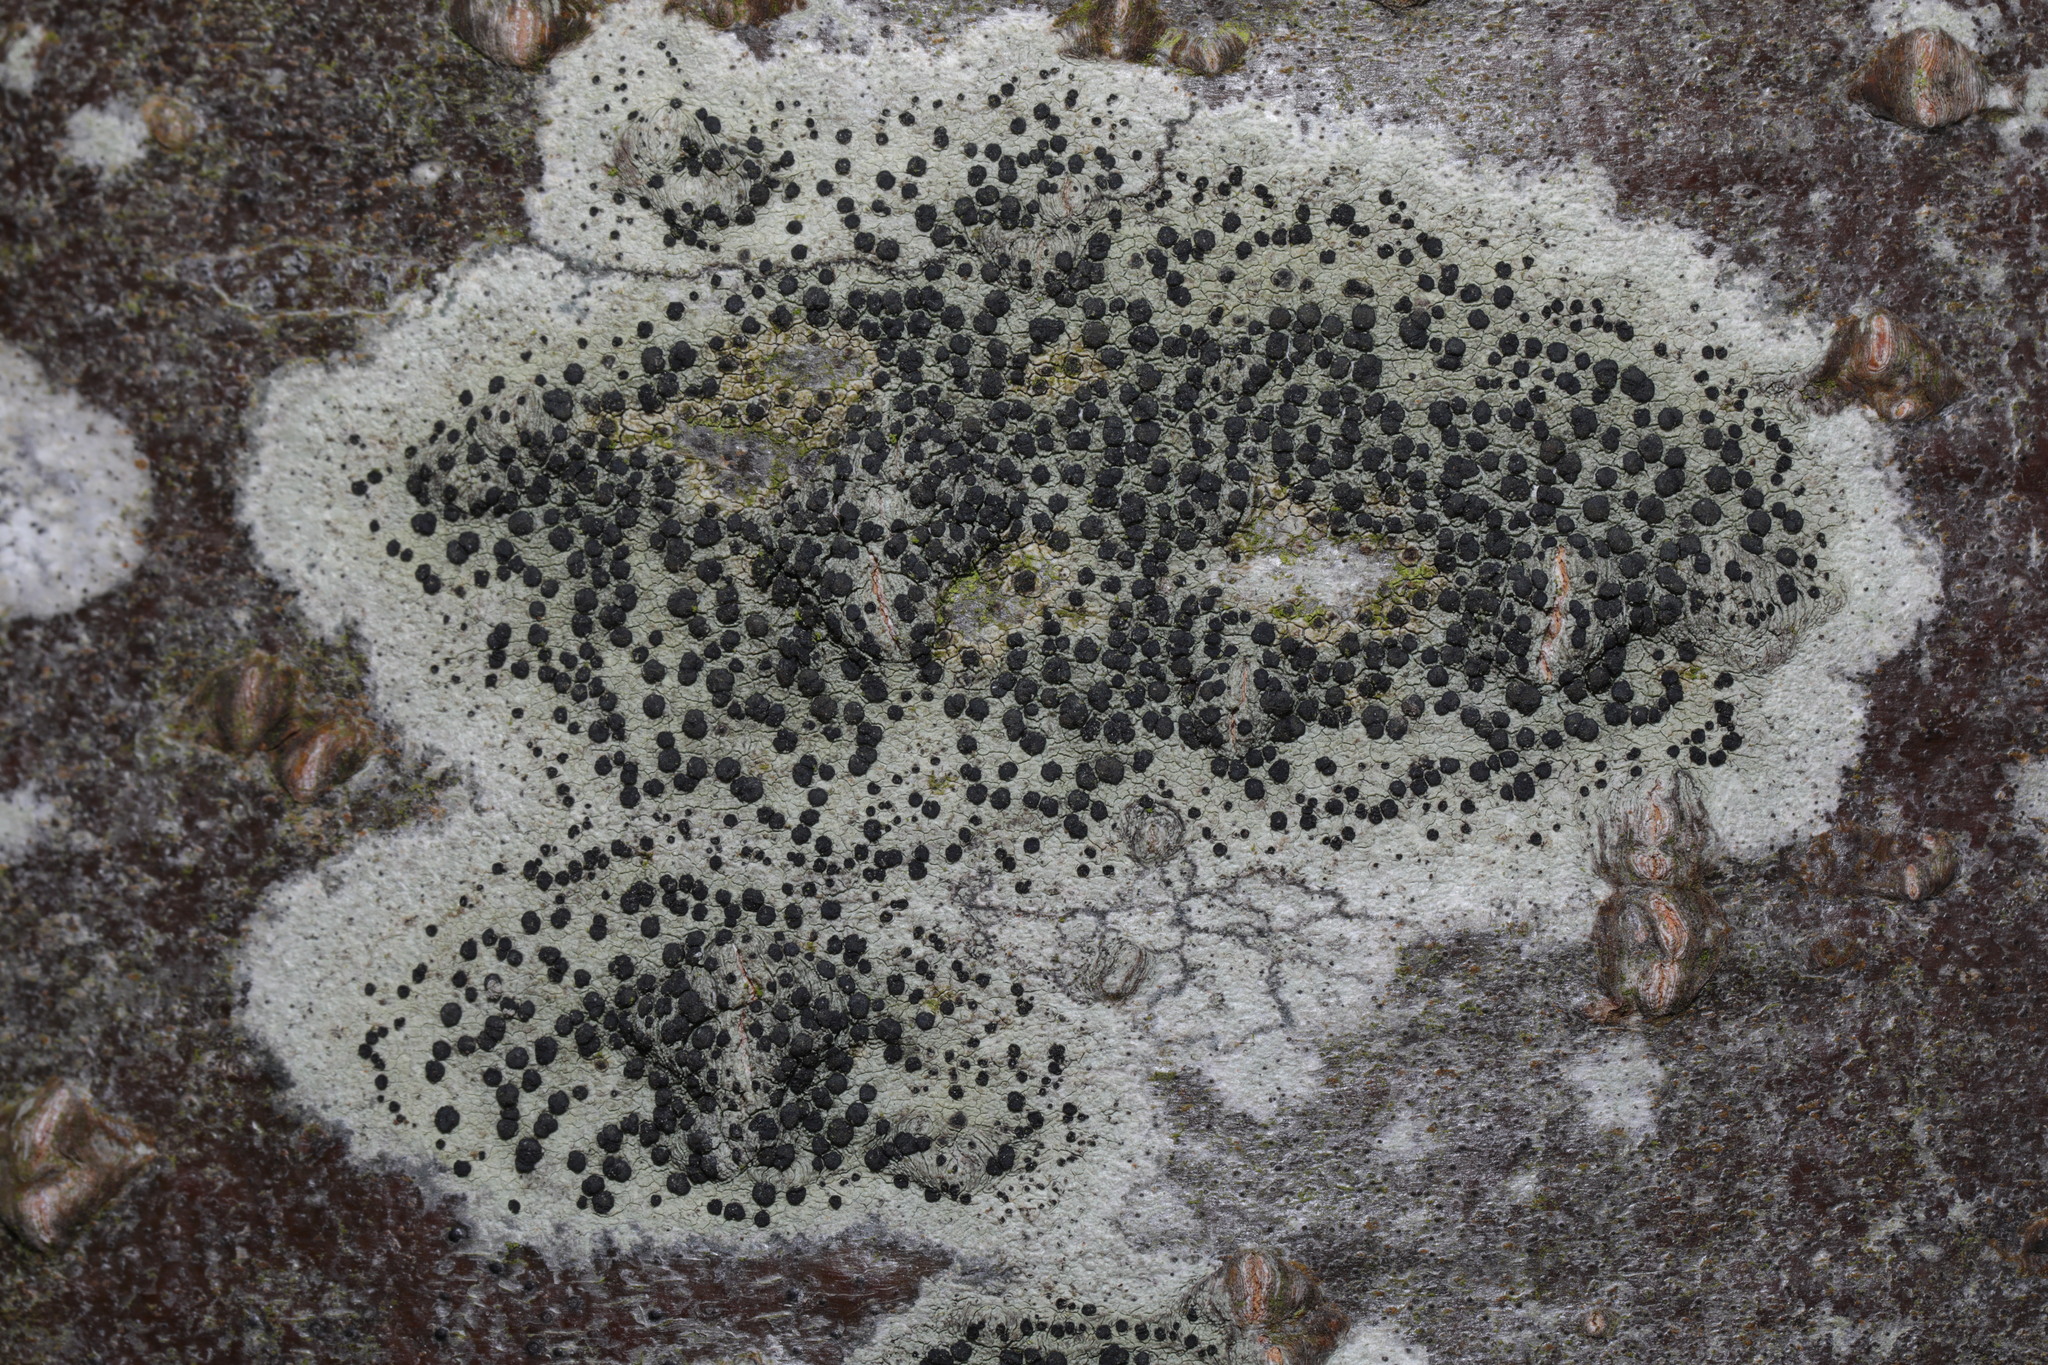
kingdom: Fungi
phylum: Ascomycota
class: Lecanoromycetes
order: Lecanorales
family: Lecanoraceae
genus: Lecidella
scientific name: Lecidella elaeochroma
